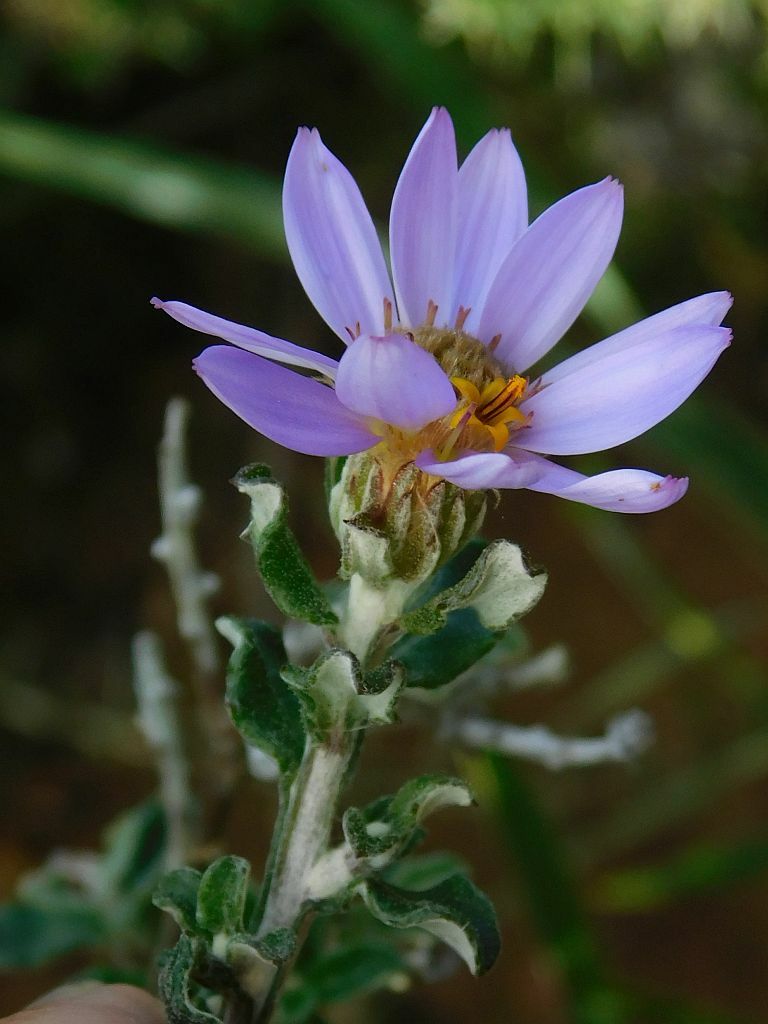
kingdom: Plantae
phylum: Tracheophyta
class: Magnoliopsida
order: Asterales
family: Asteraceae
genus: Printzia
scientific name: Printzia polifolia
